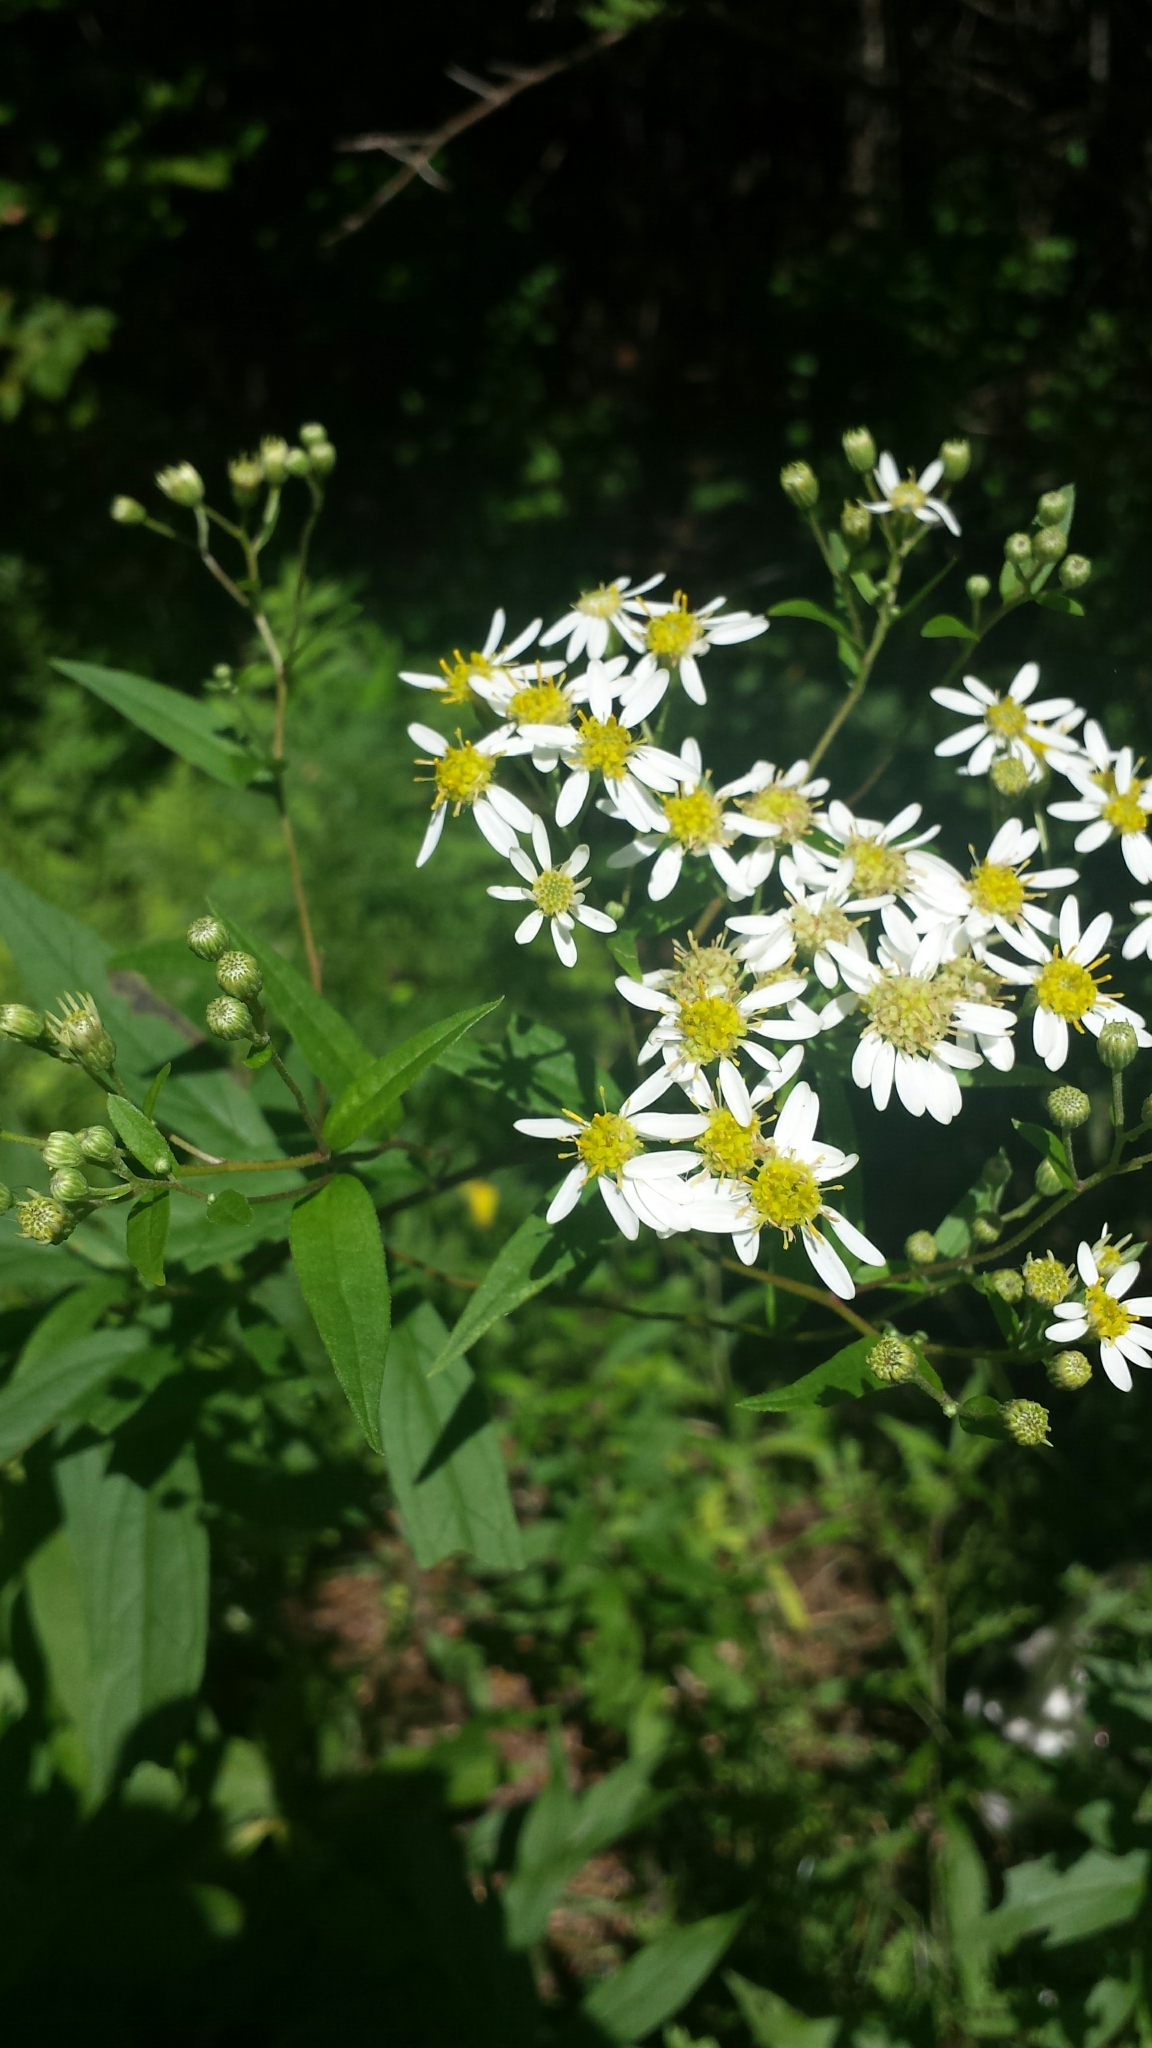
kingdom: Plantae
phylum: Tracheophyta
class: Magnoliopsida
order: Asterales
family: Asteraceae
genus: Doellingeria
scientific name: Doellingeria umbellata
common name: Flat-top white aster
